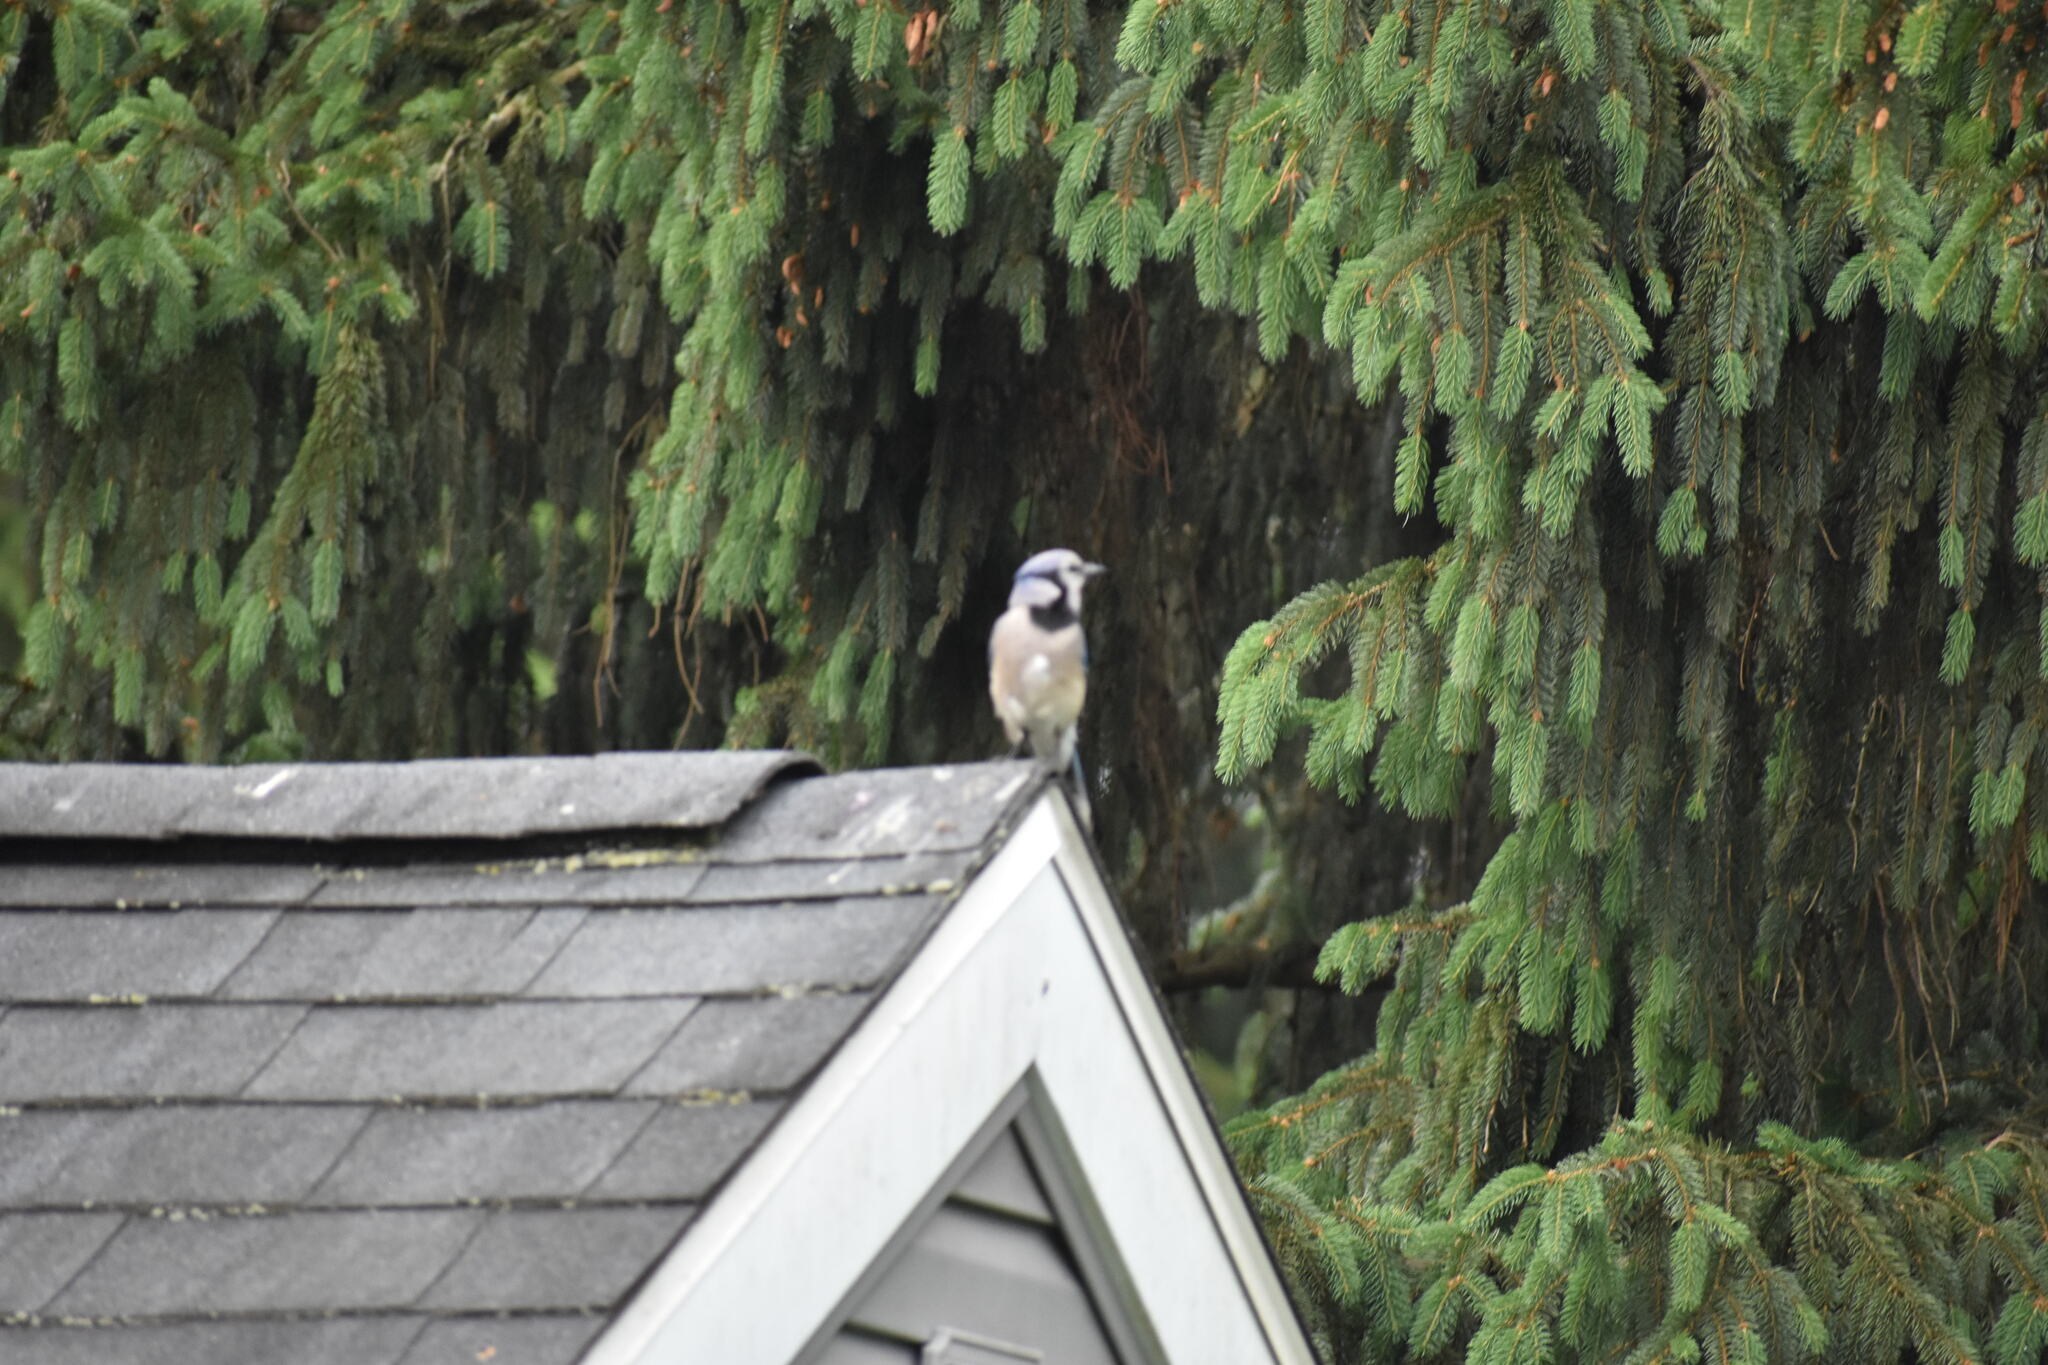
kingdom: Animalia
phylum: Chordata
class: Aves
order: Passeriformes
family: Corvidae
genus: Cyanocitta
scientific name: Cyanocitta cristata
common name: Blue jay
